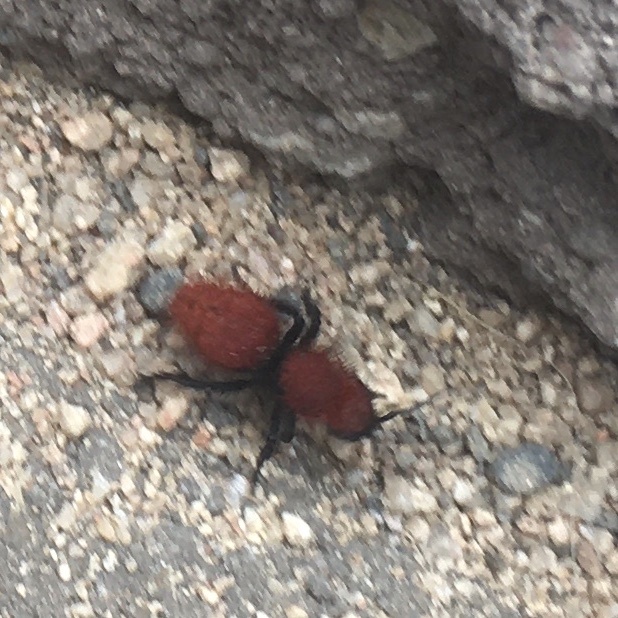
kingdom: Animalia
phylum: Arthropoda
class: Insecta
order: Hymenoptera
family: Mutillidae
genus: Dasymutilla
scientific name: Dasymutilla vestita
